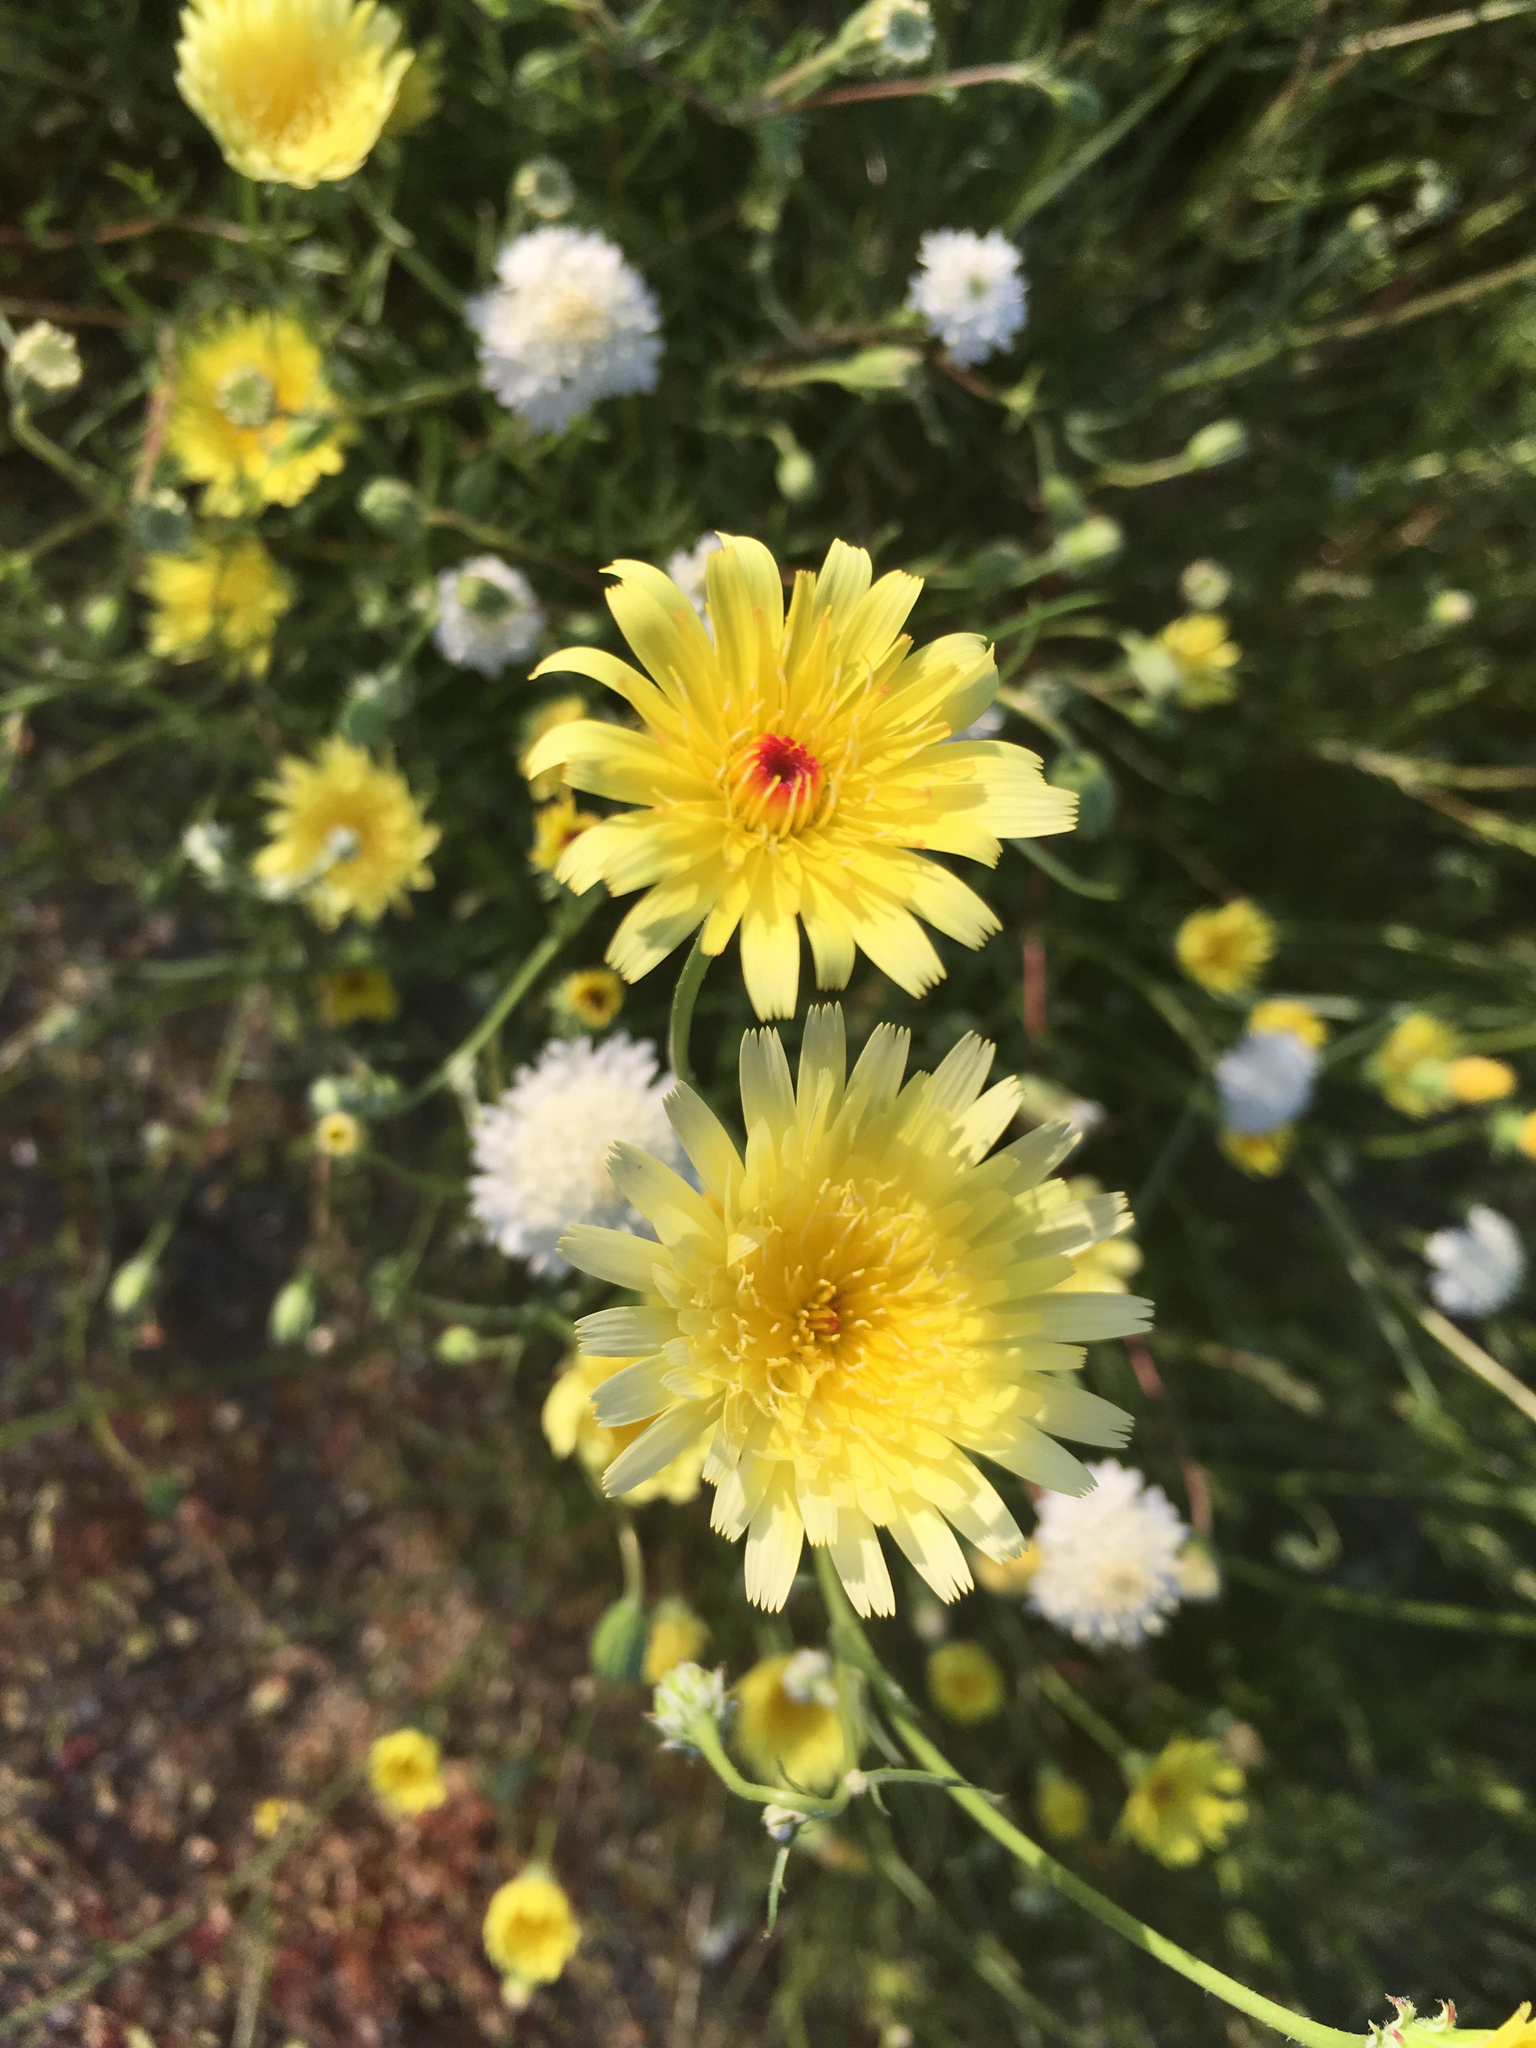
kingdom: Plantae
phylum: Tracheophyta
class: Magnoliopsida
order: Asterales
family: Asteraceae
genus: Malacothrix
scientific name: Malacothrix glabrata
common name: Smooth desert-dandelion
